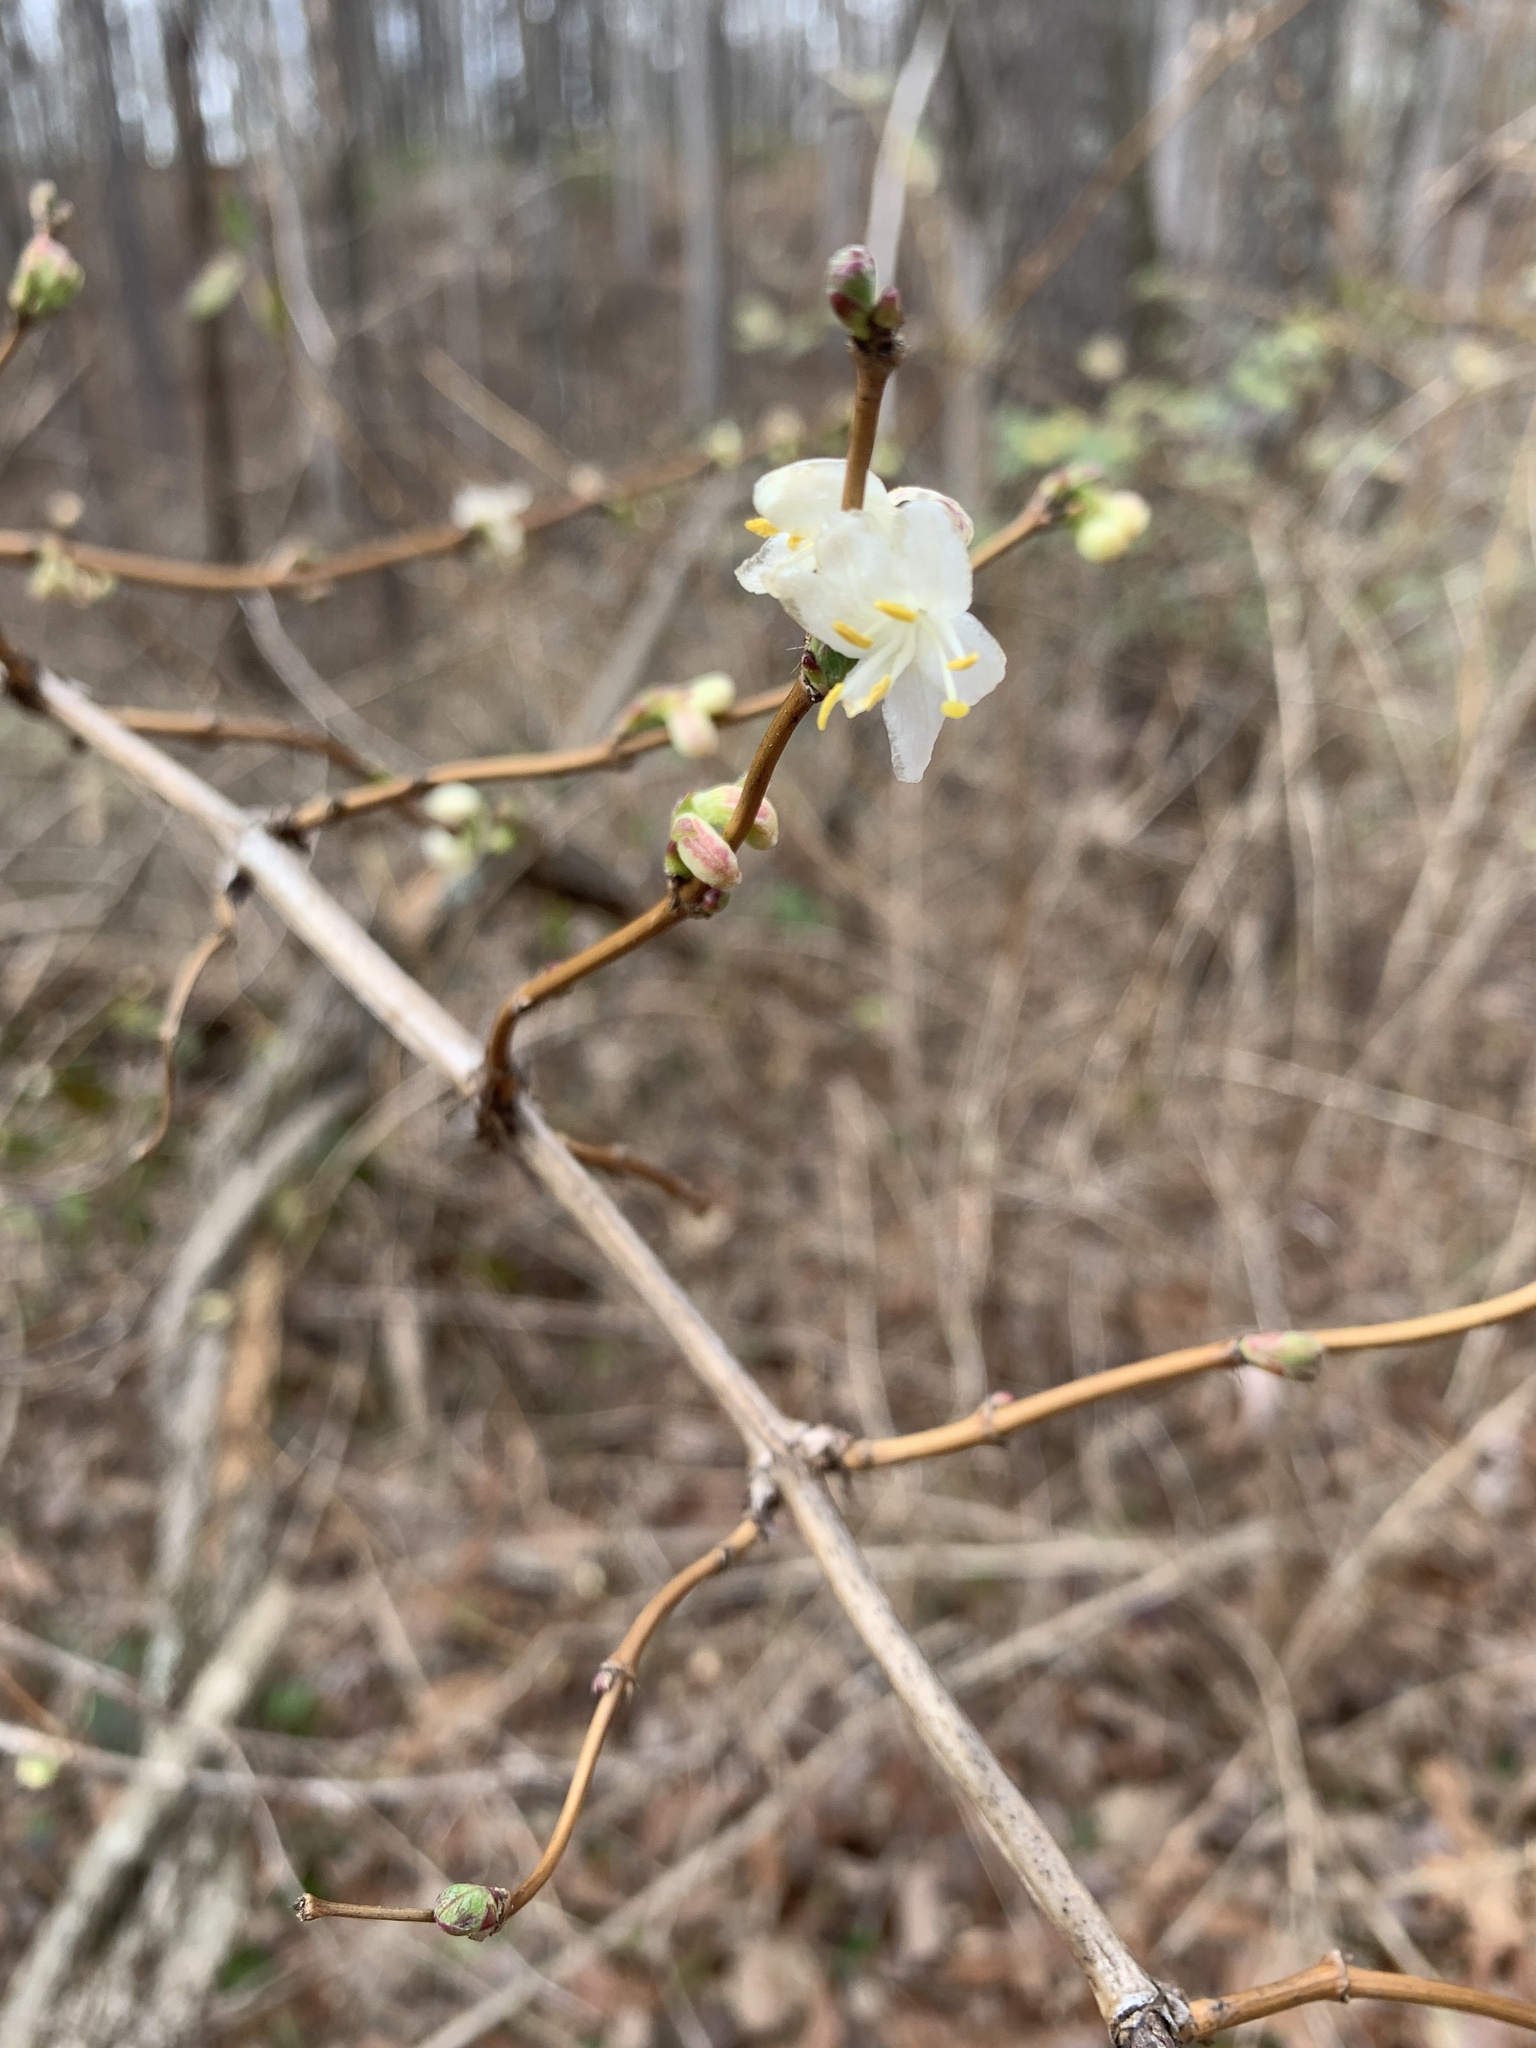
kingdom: Plantae
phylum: Tracheophyta
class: Magnoliopsida
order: Dipsacales
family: Caprifoliaceae
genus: Lonicera
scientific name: Lonicera fragrantissima
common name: Fragrant honeysuckle
